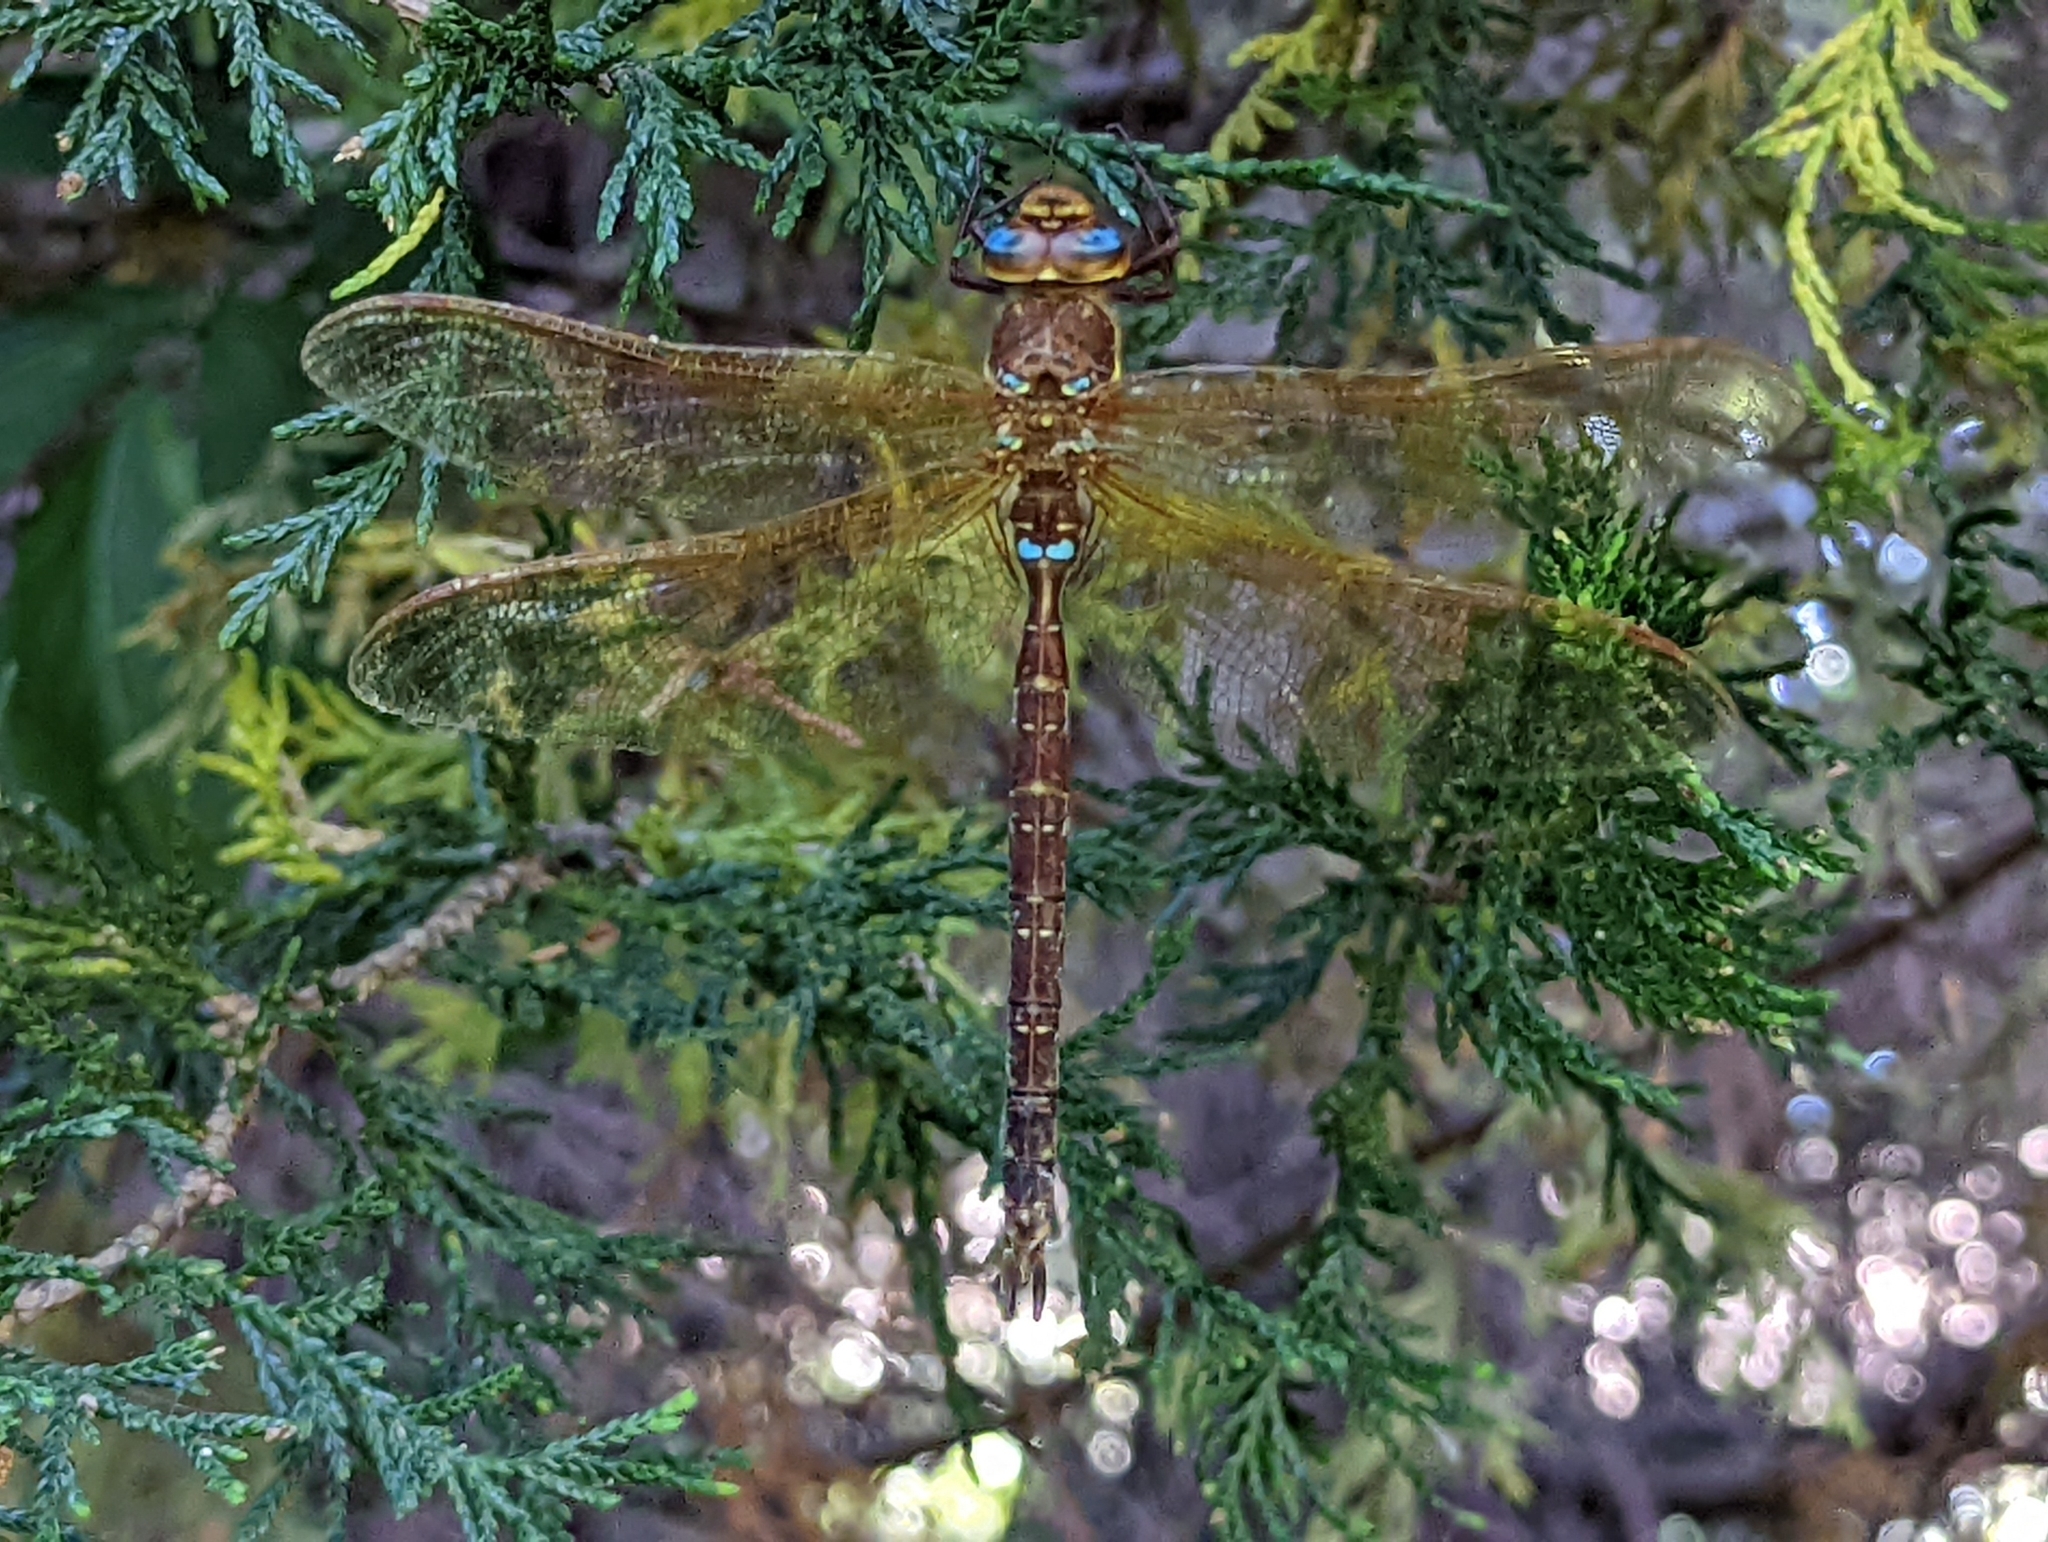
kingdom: Animalia
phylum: Arthropoda
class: Insecta
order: Odonata
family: Aeshnidae
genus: Aeshna
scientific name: Aeshna grandis
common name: Brown hawker
